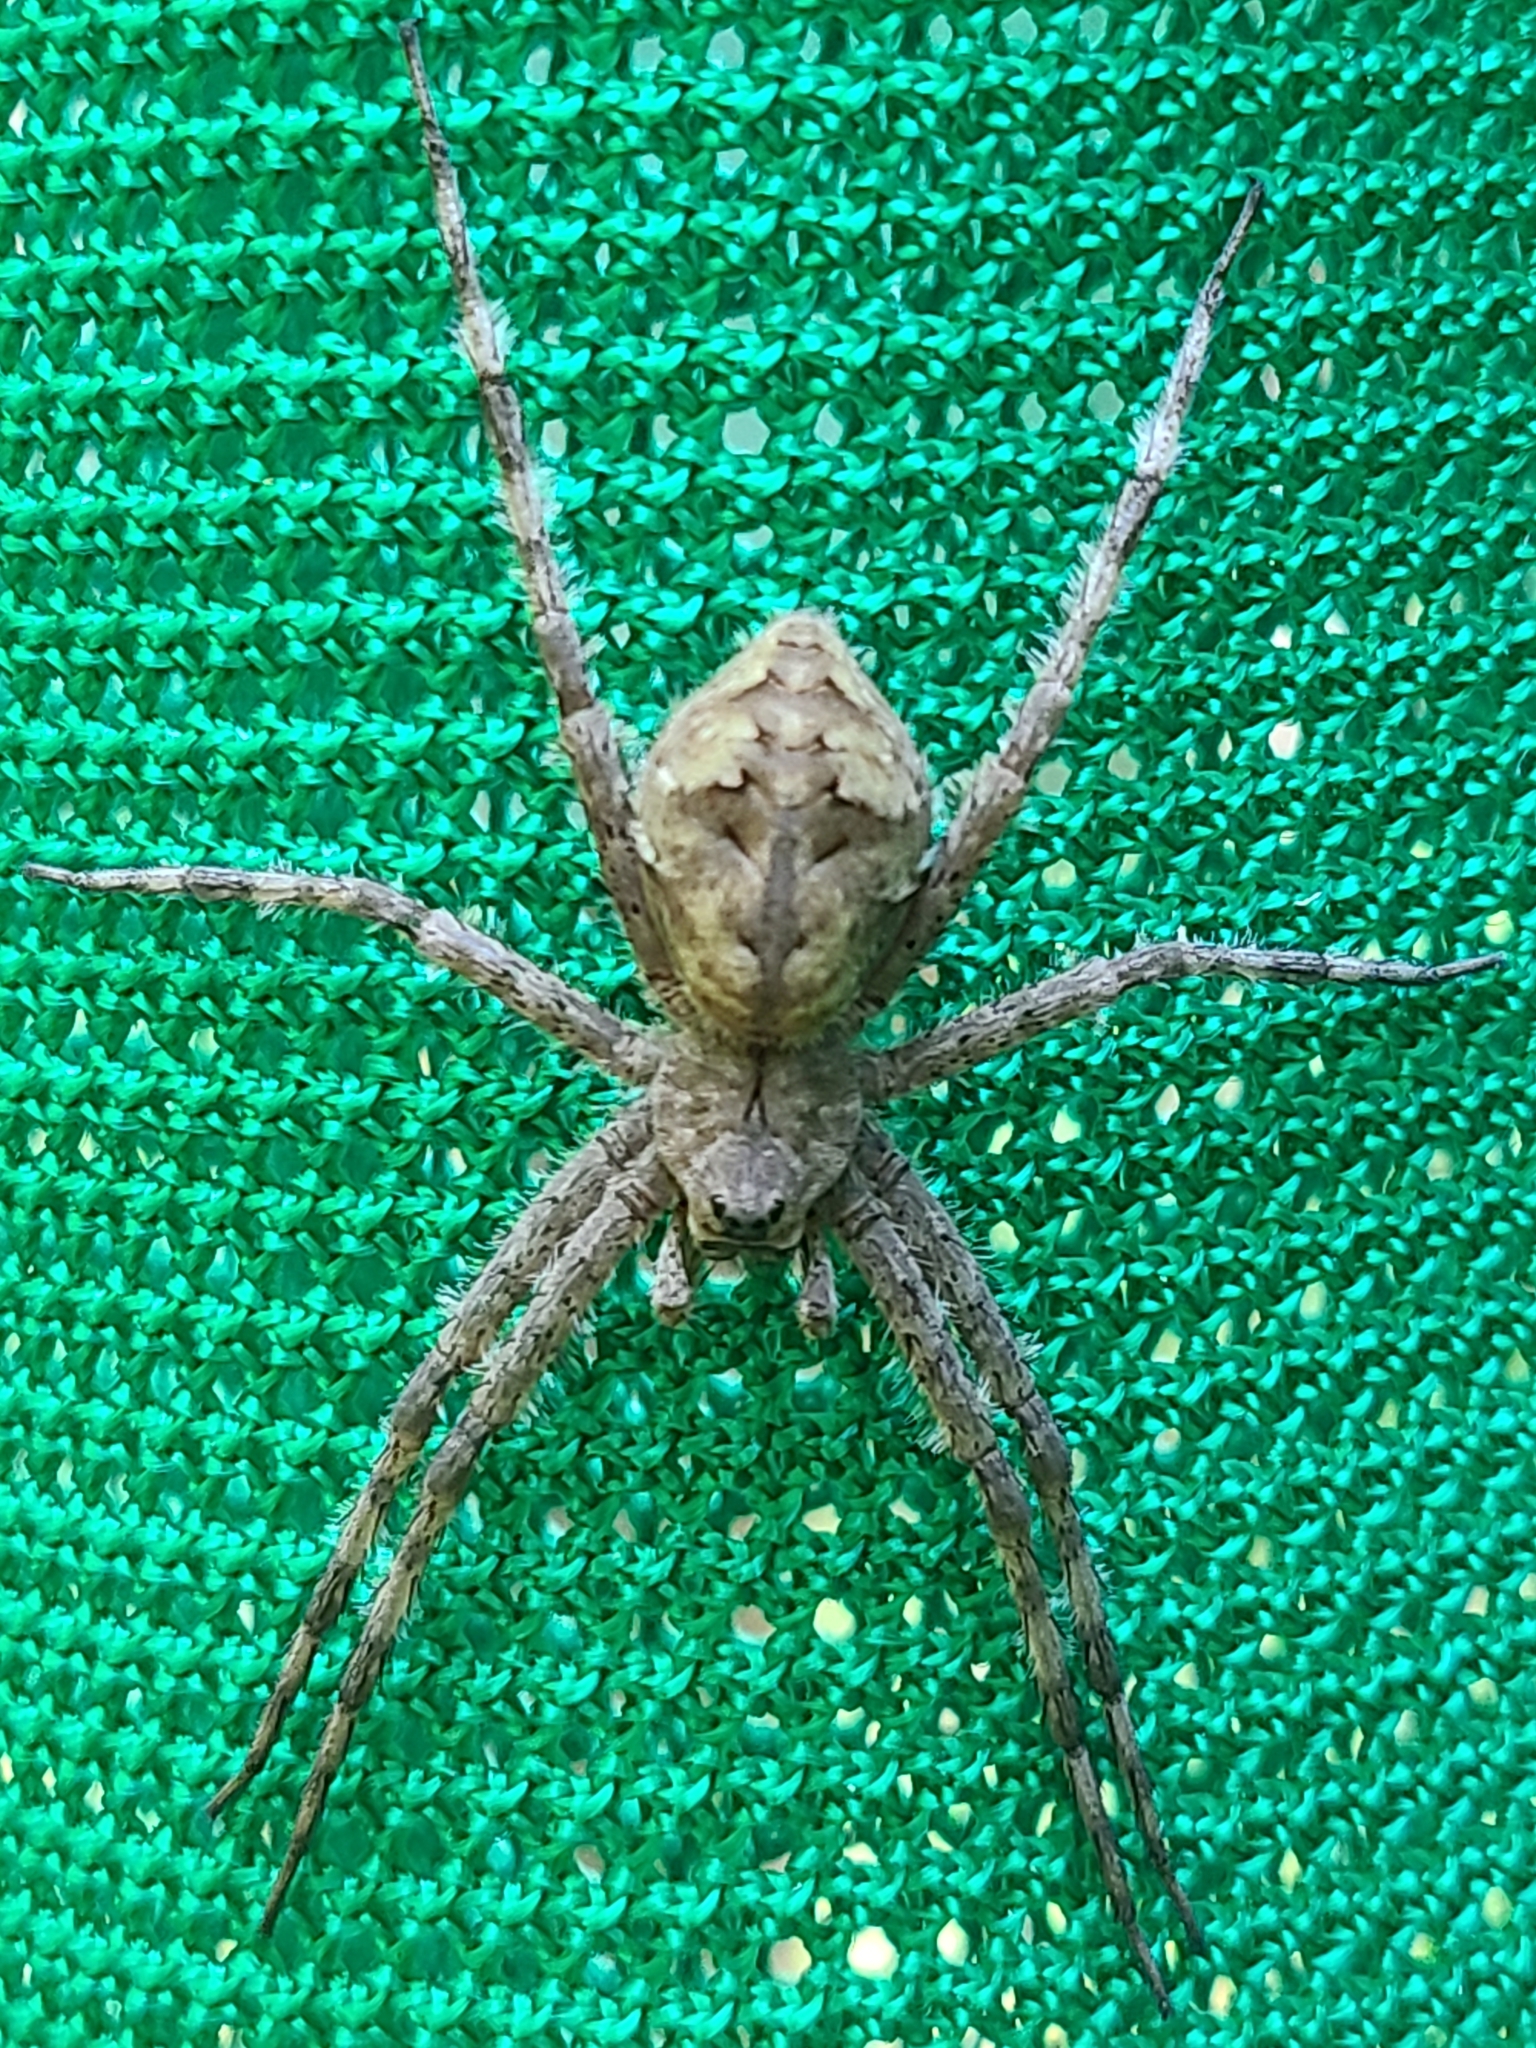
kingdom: Animalia
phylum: Arthropoda
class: Arachnida
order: Araneae
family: Pisauridae
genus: Dolomedes
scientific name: Dolomedes albineus
